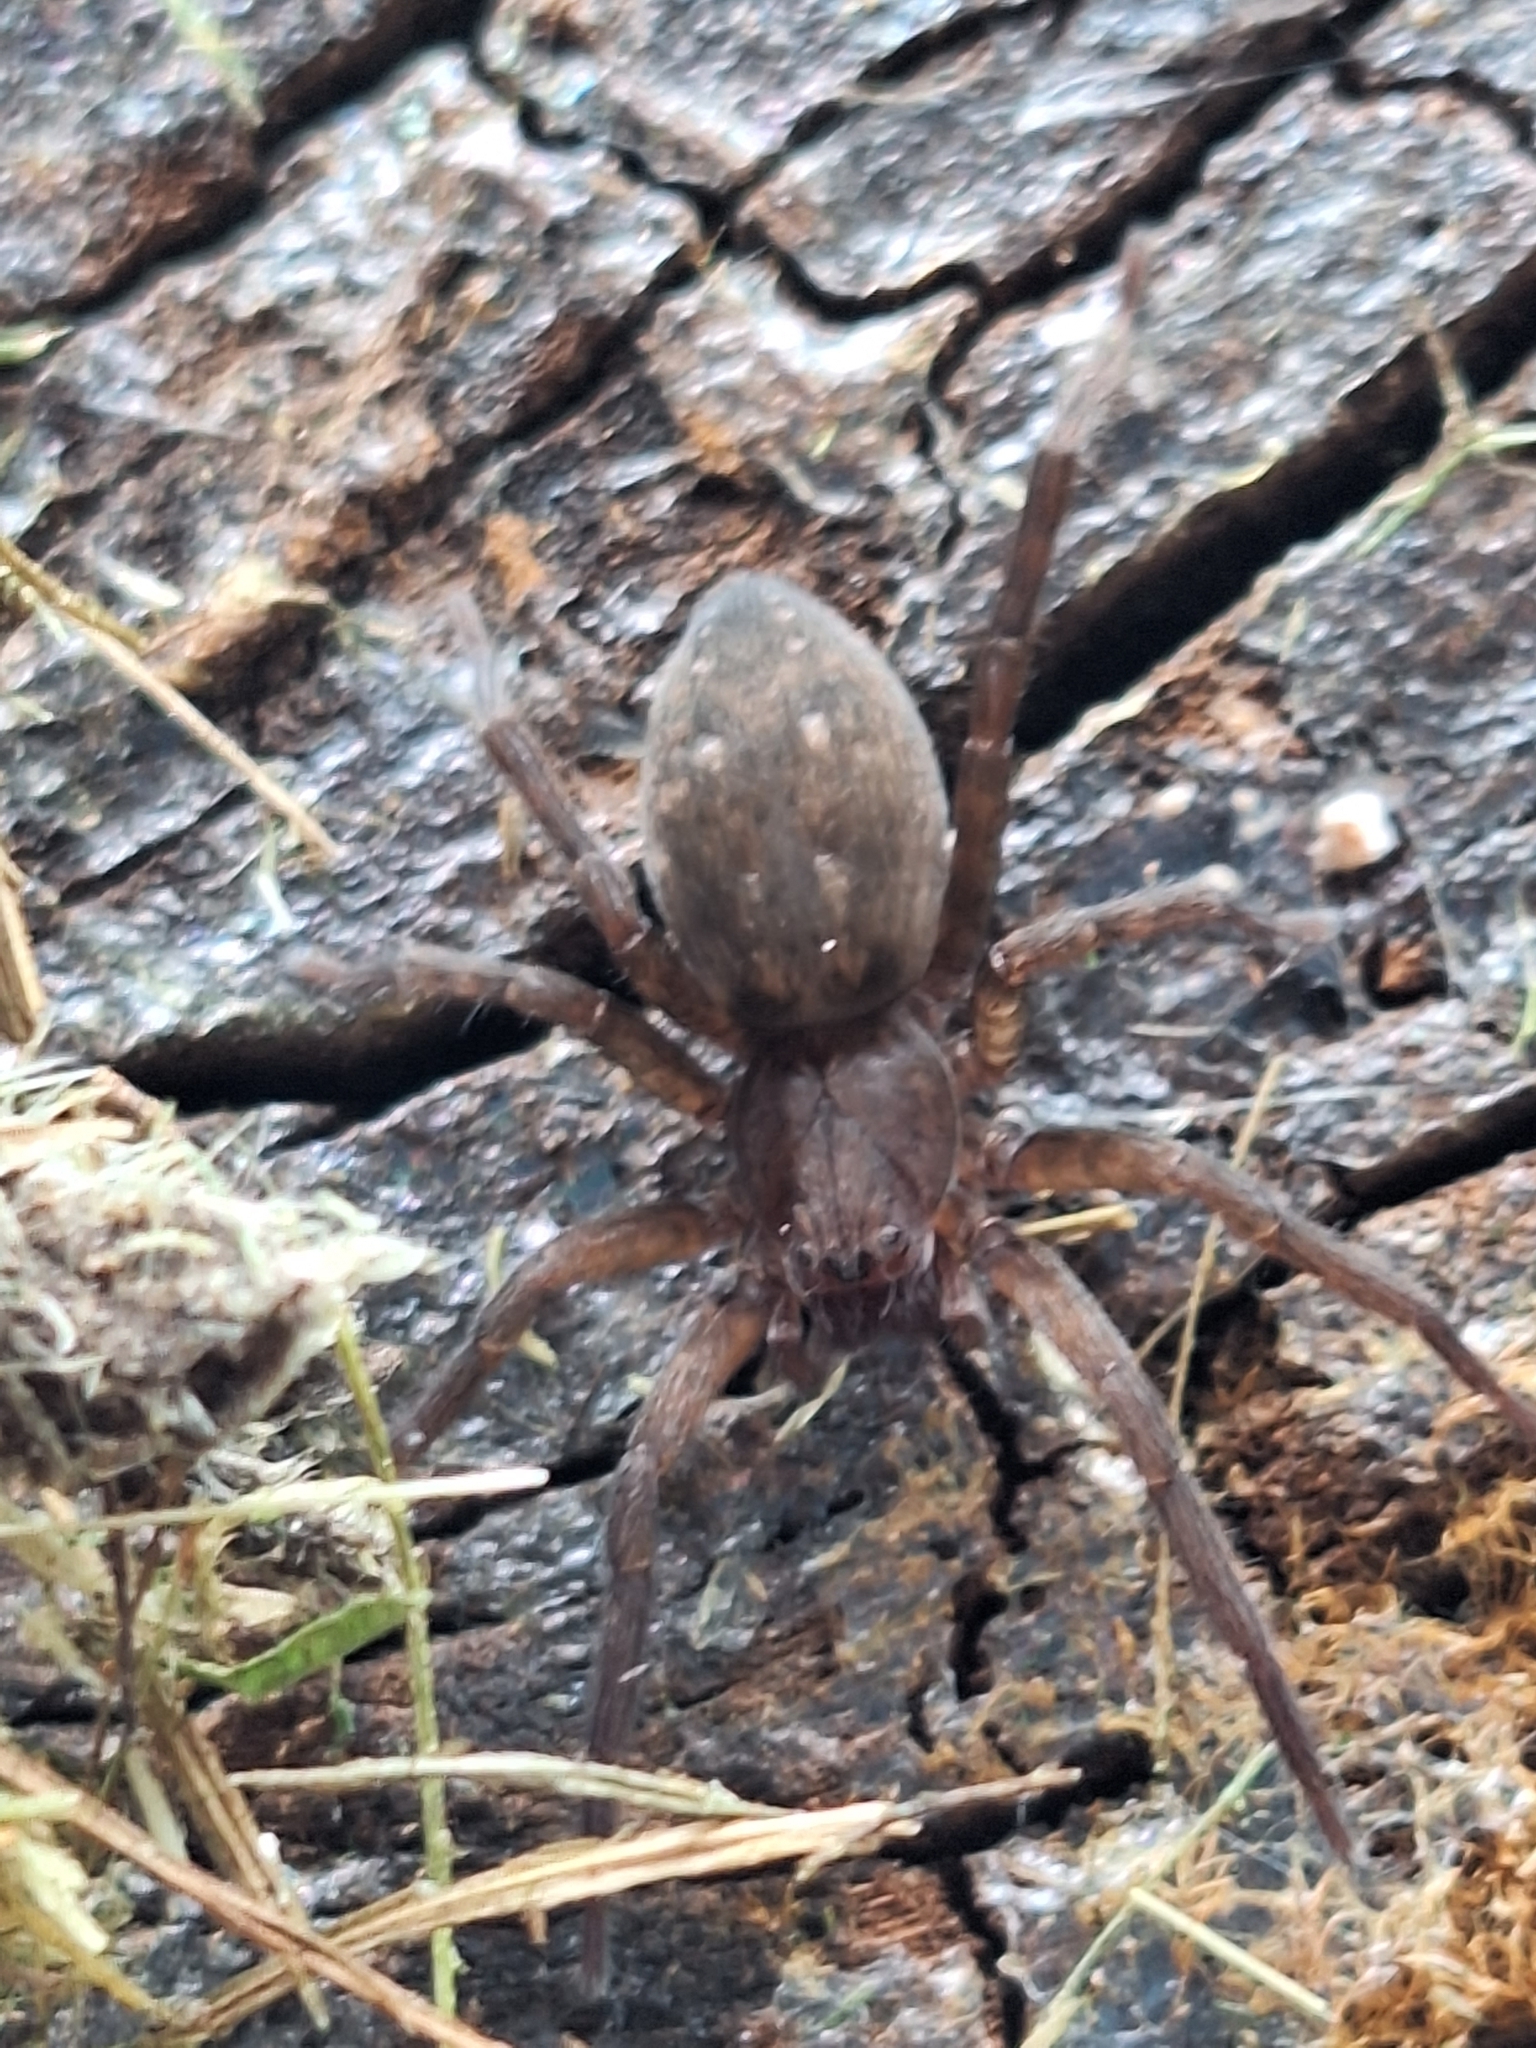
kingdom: Animalia
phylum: Arthropoda
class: Arachnida
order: Araneae
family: Ctenidae
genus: Asthenoctenus
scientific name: Asthenoctenus borellii
